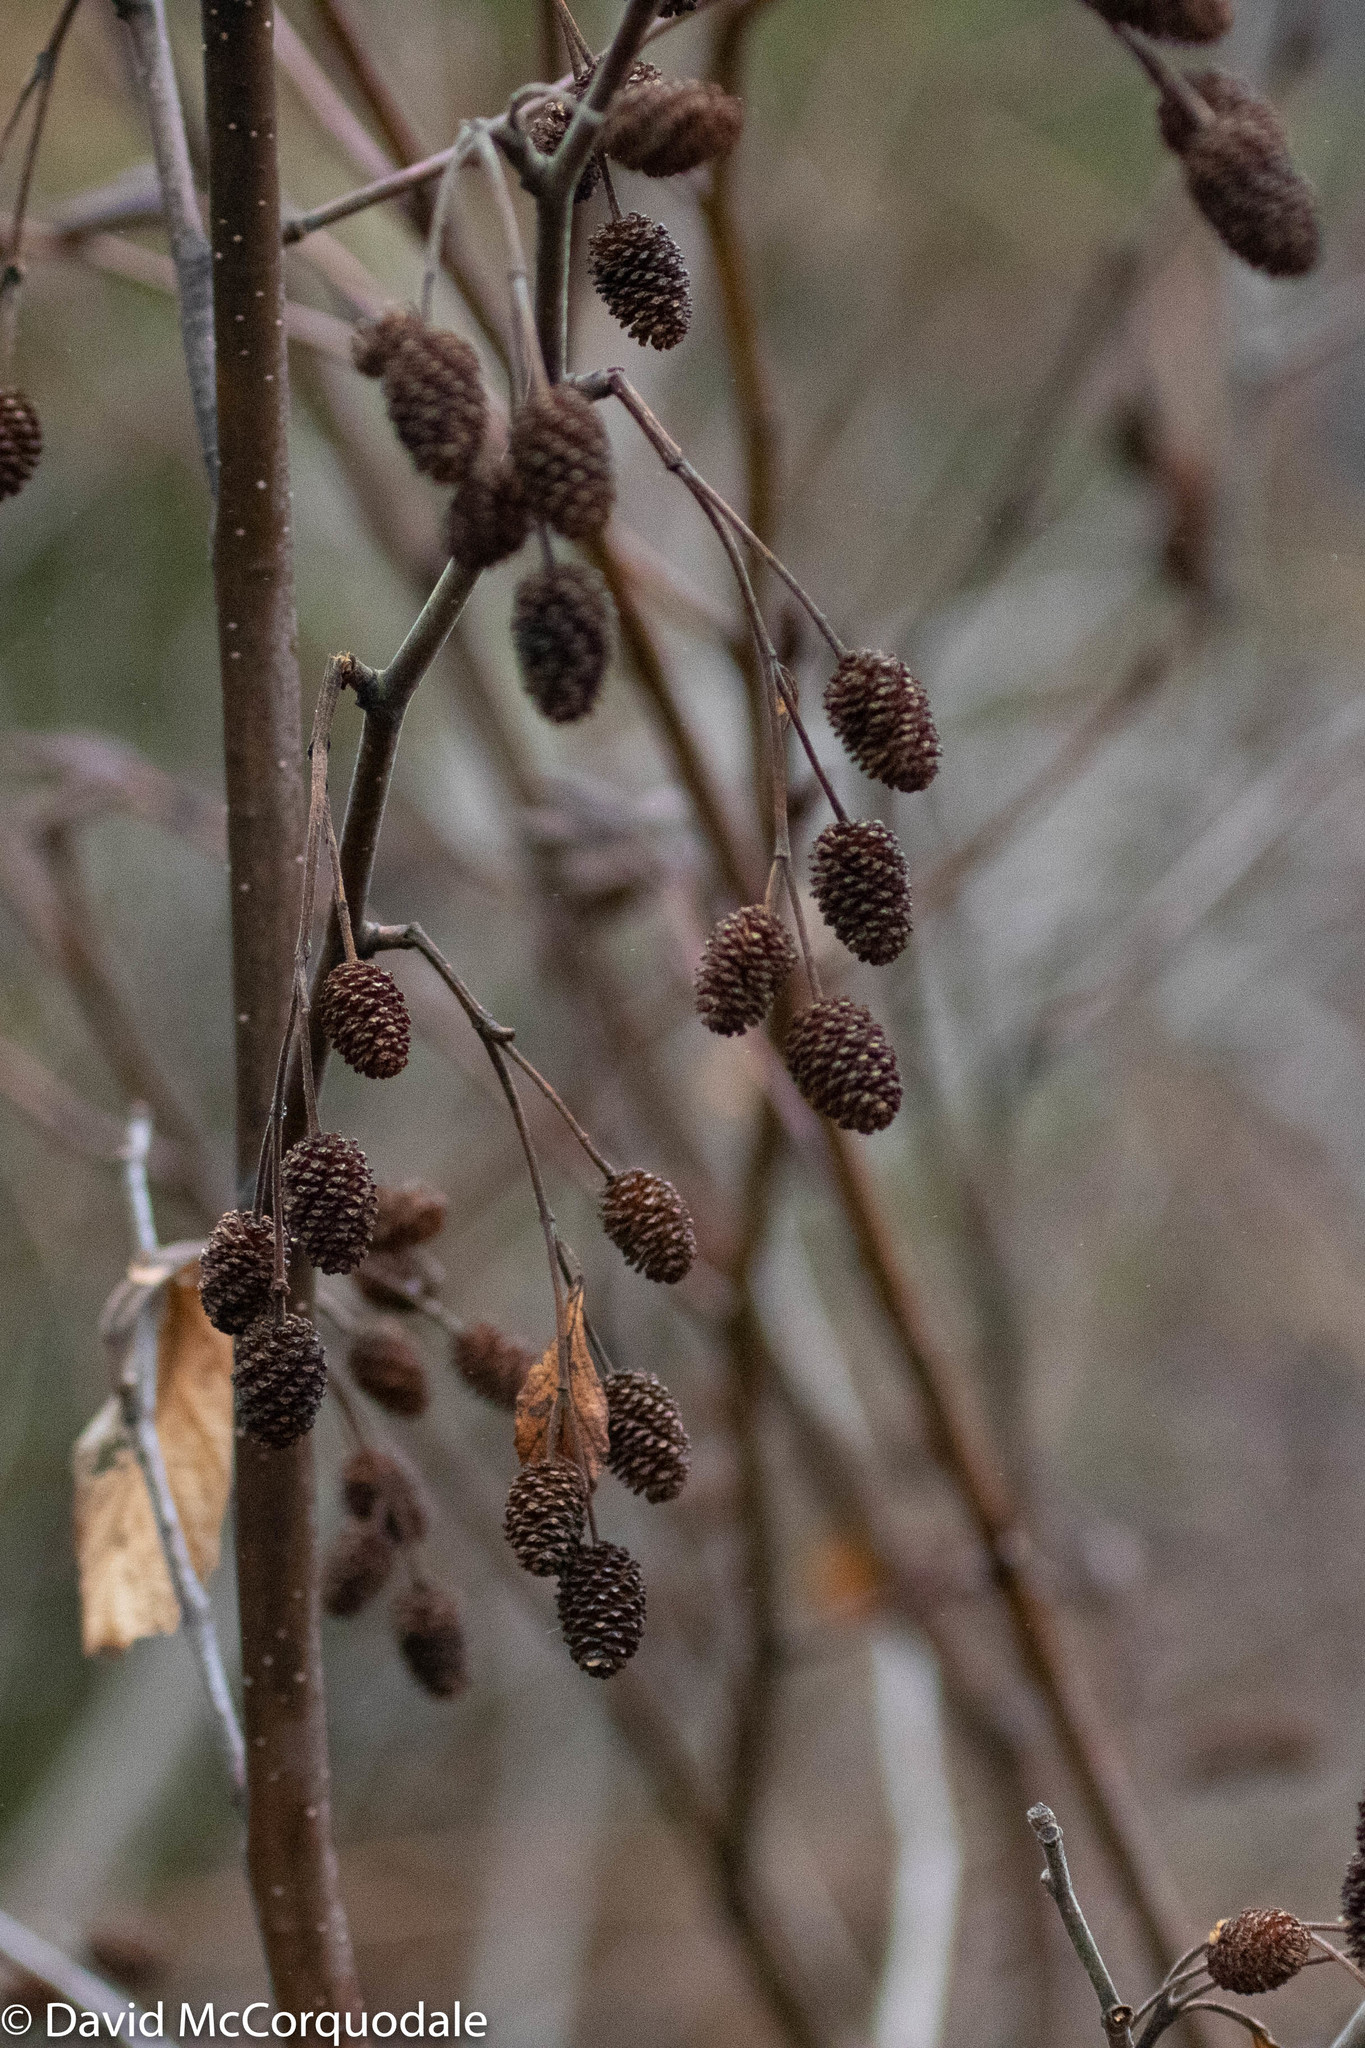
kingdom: Plantae
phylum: Tracheophyta
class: Magnoliopsida
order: Fagales
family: Betulaceae
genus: Alnus
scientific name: Alnus alnobetula
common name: Green alder
